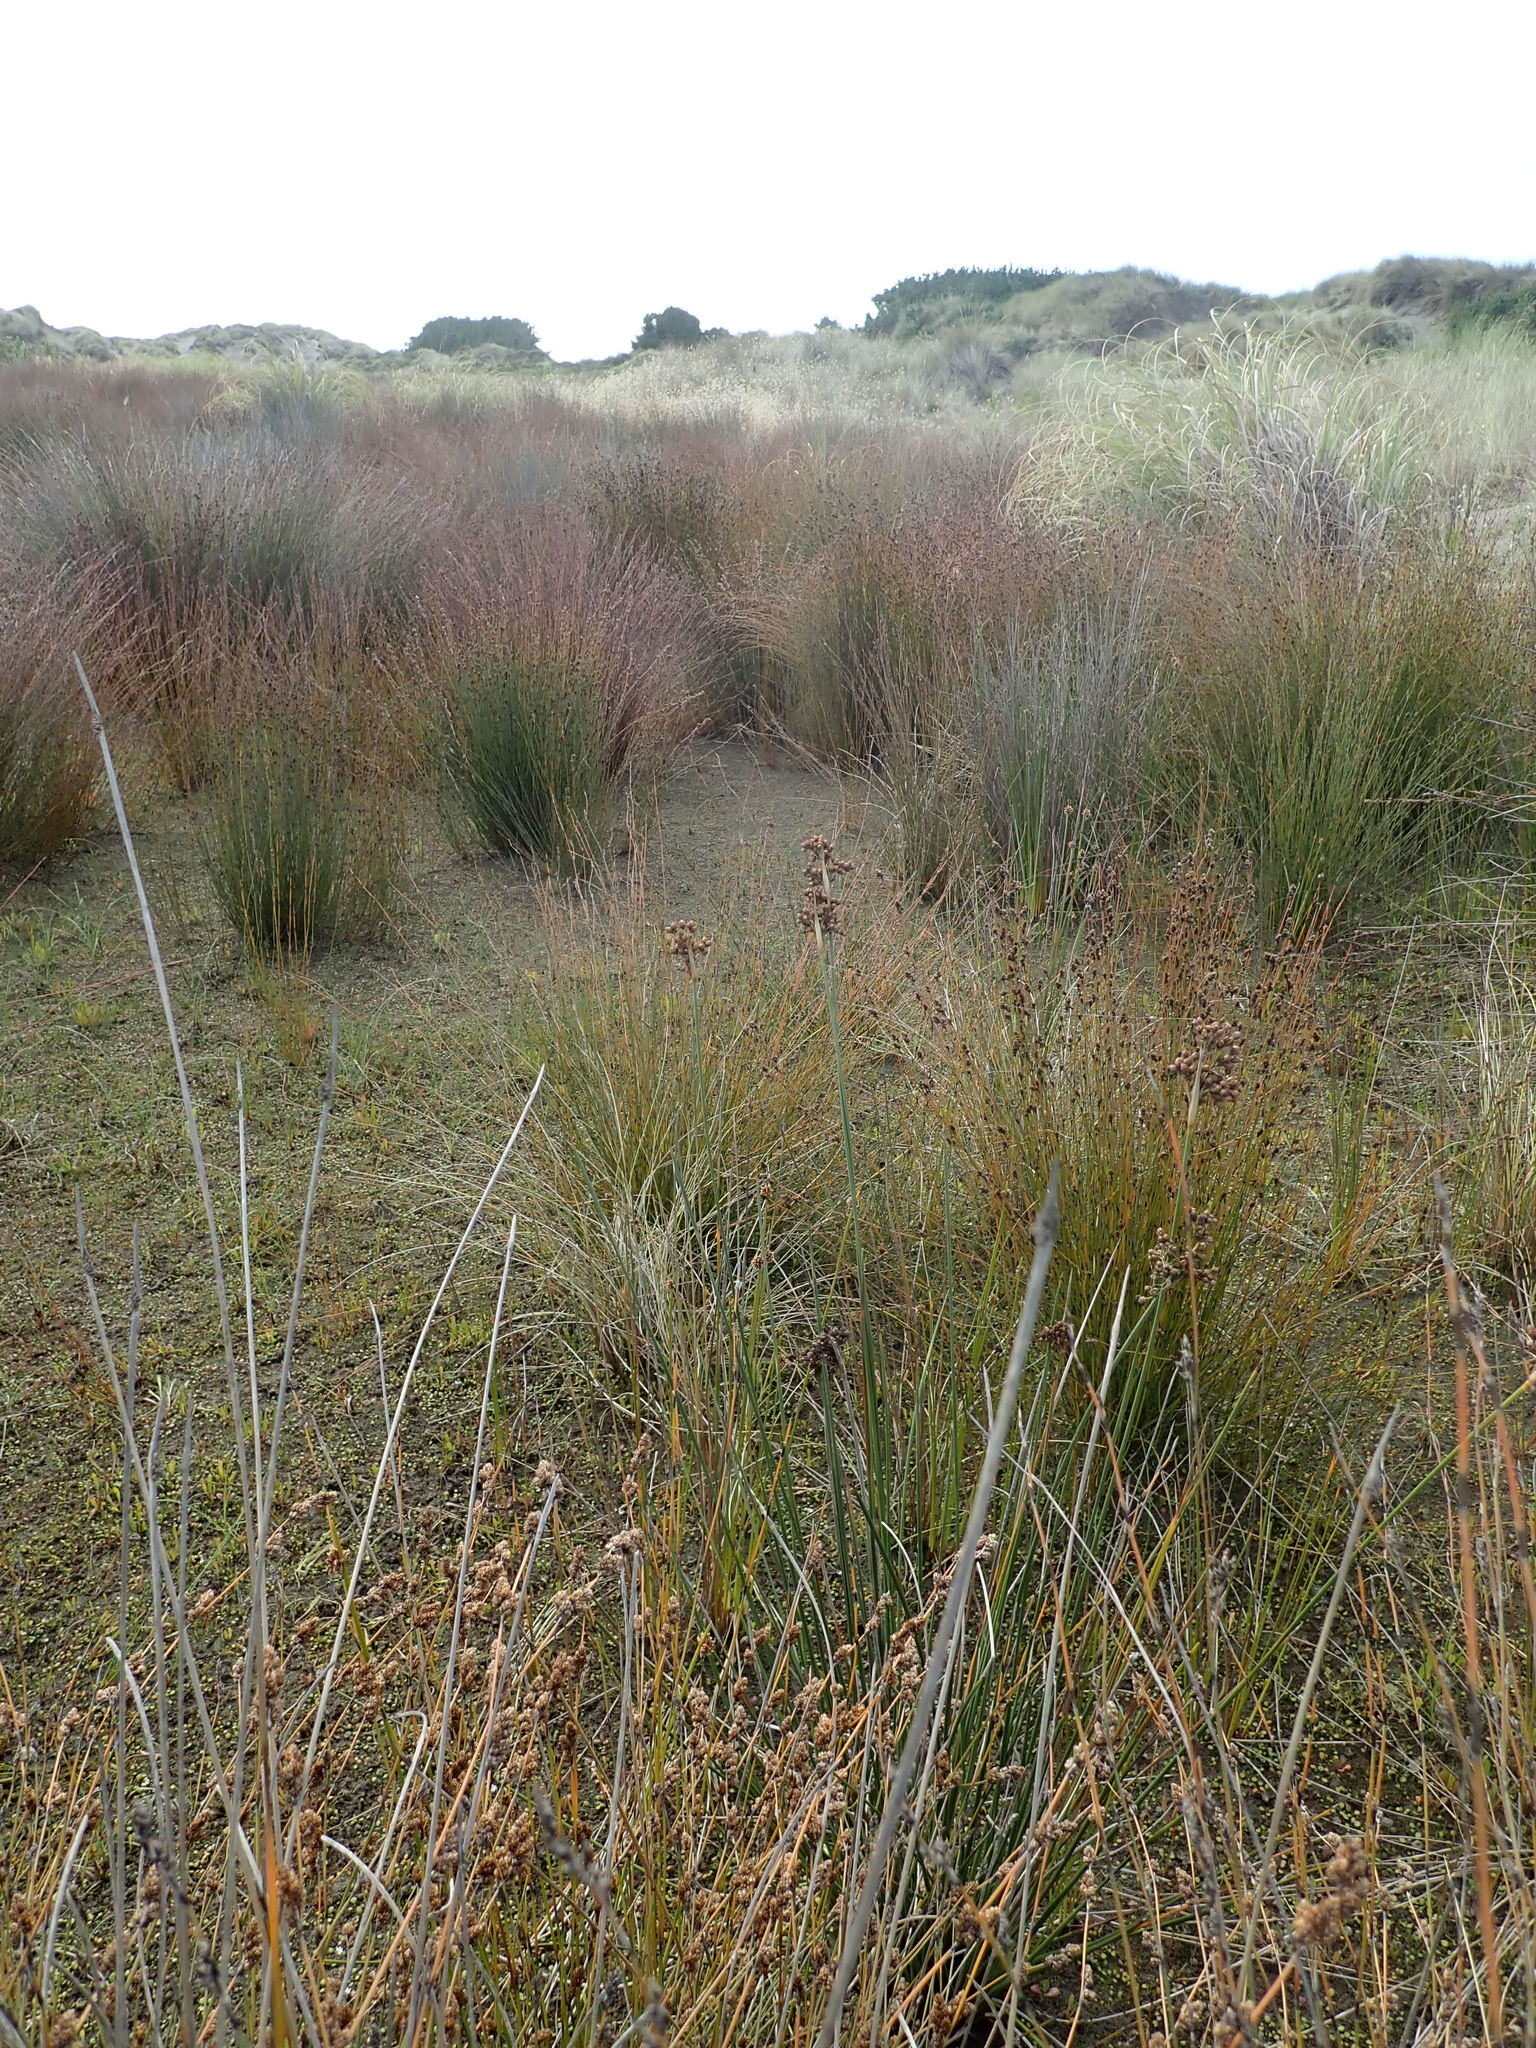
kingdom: Plantae
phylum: Tracheophyta
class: Liliopsida
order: Poales
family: Juncaceae
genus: Juncus
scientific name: Juncus acutus
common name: Sharp rush
